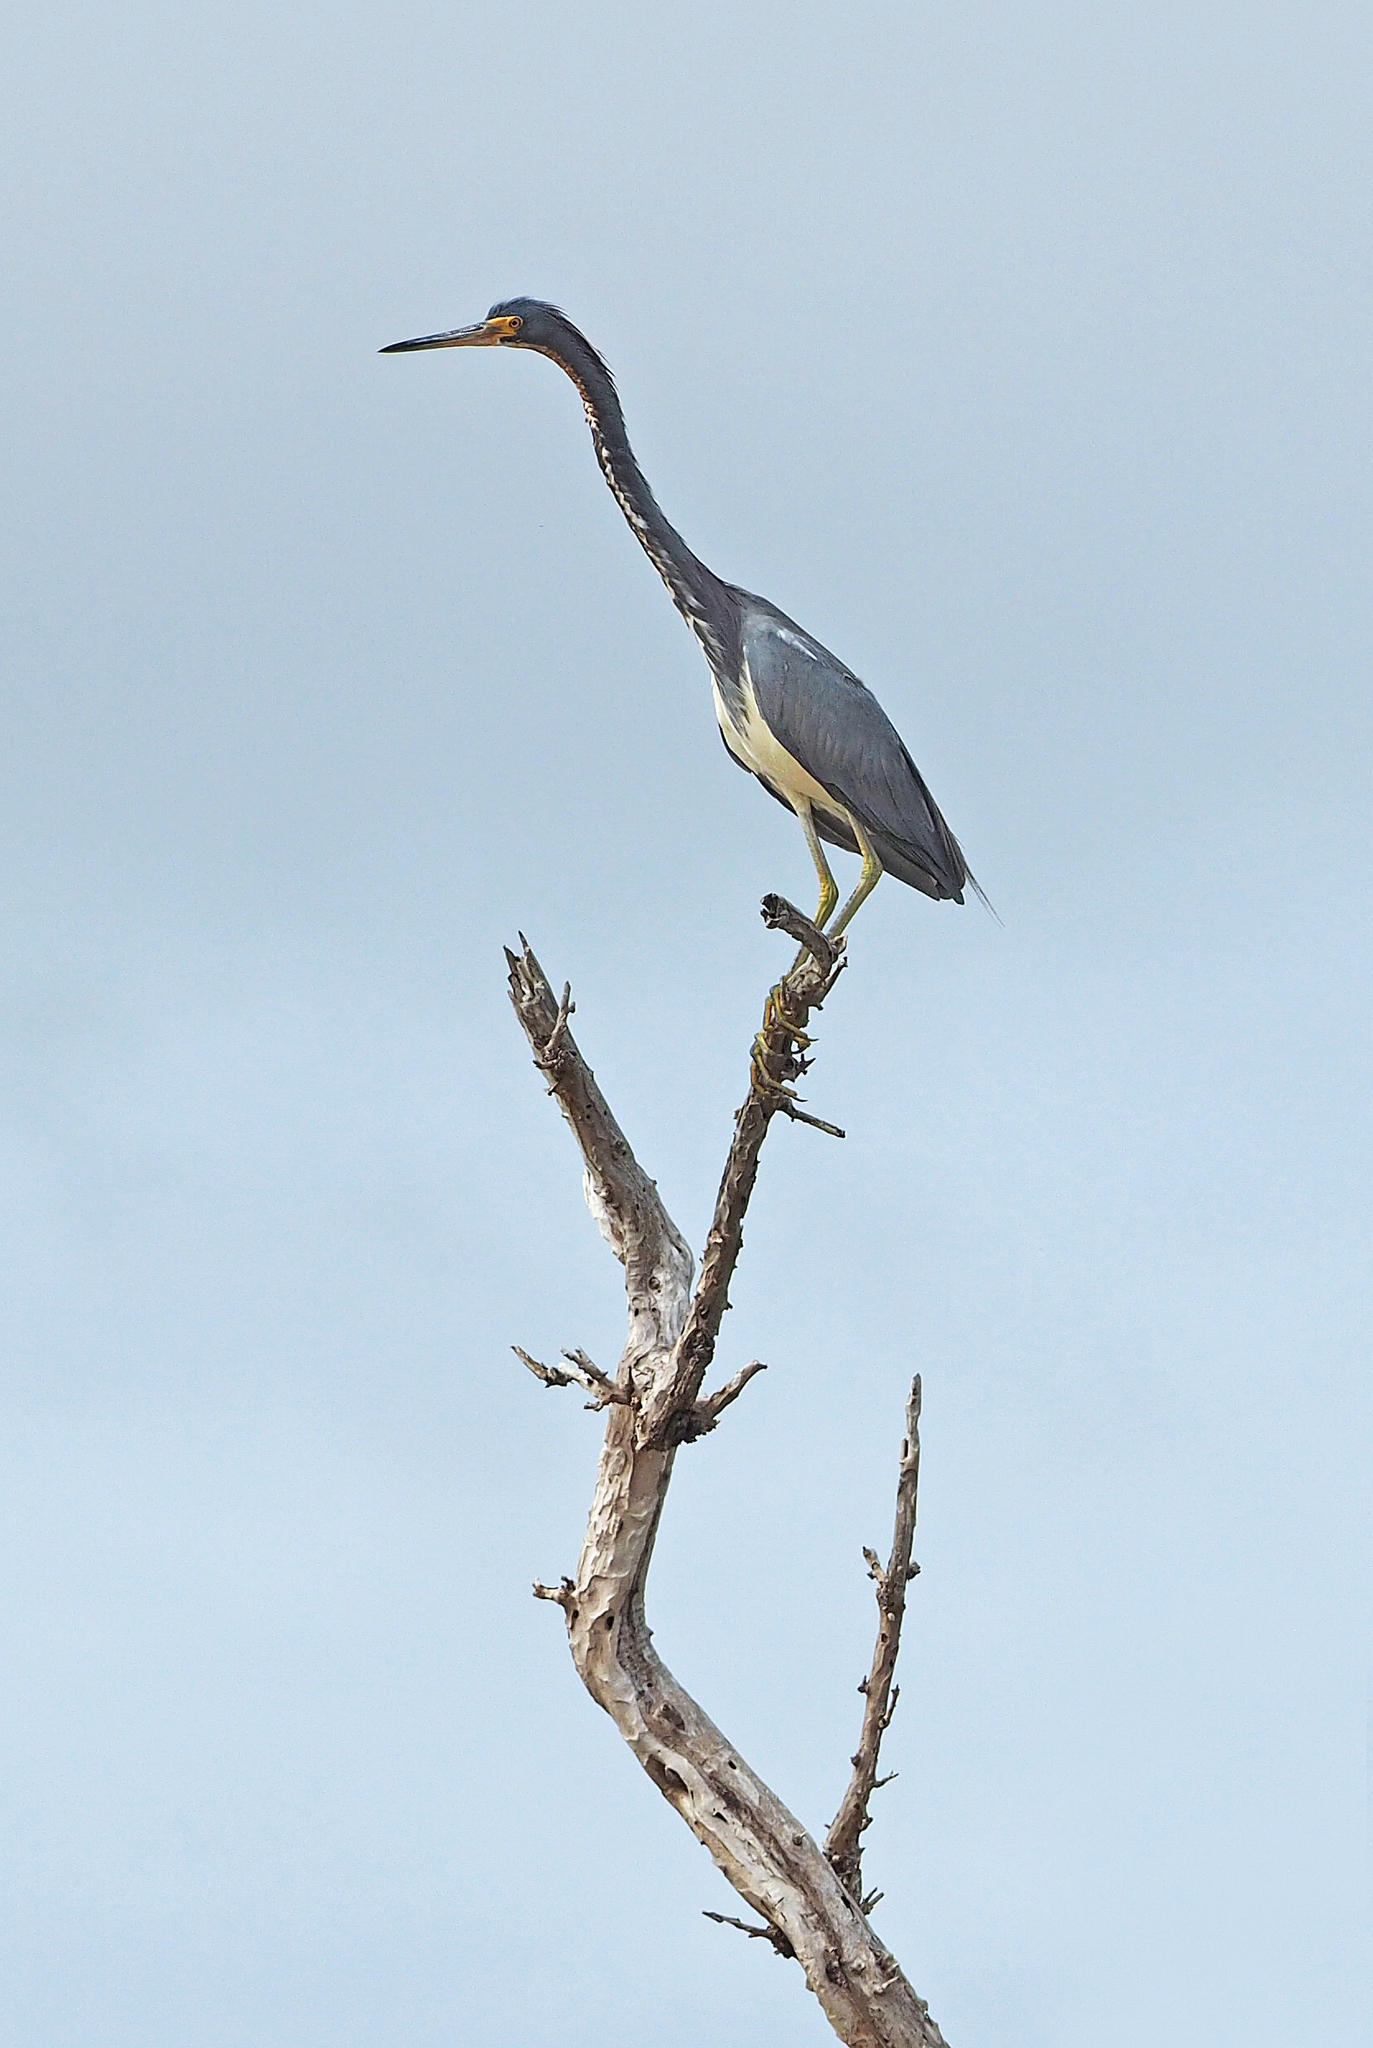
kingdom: Animalia
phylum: Chordata
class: Aves
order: Pelecaniformes
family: Ardeidae
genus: Egretta
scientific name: Egretta tricolor
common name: Tricolored heron
